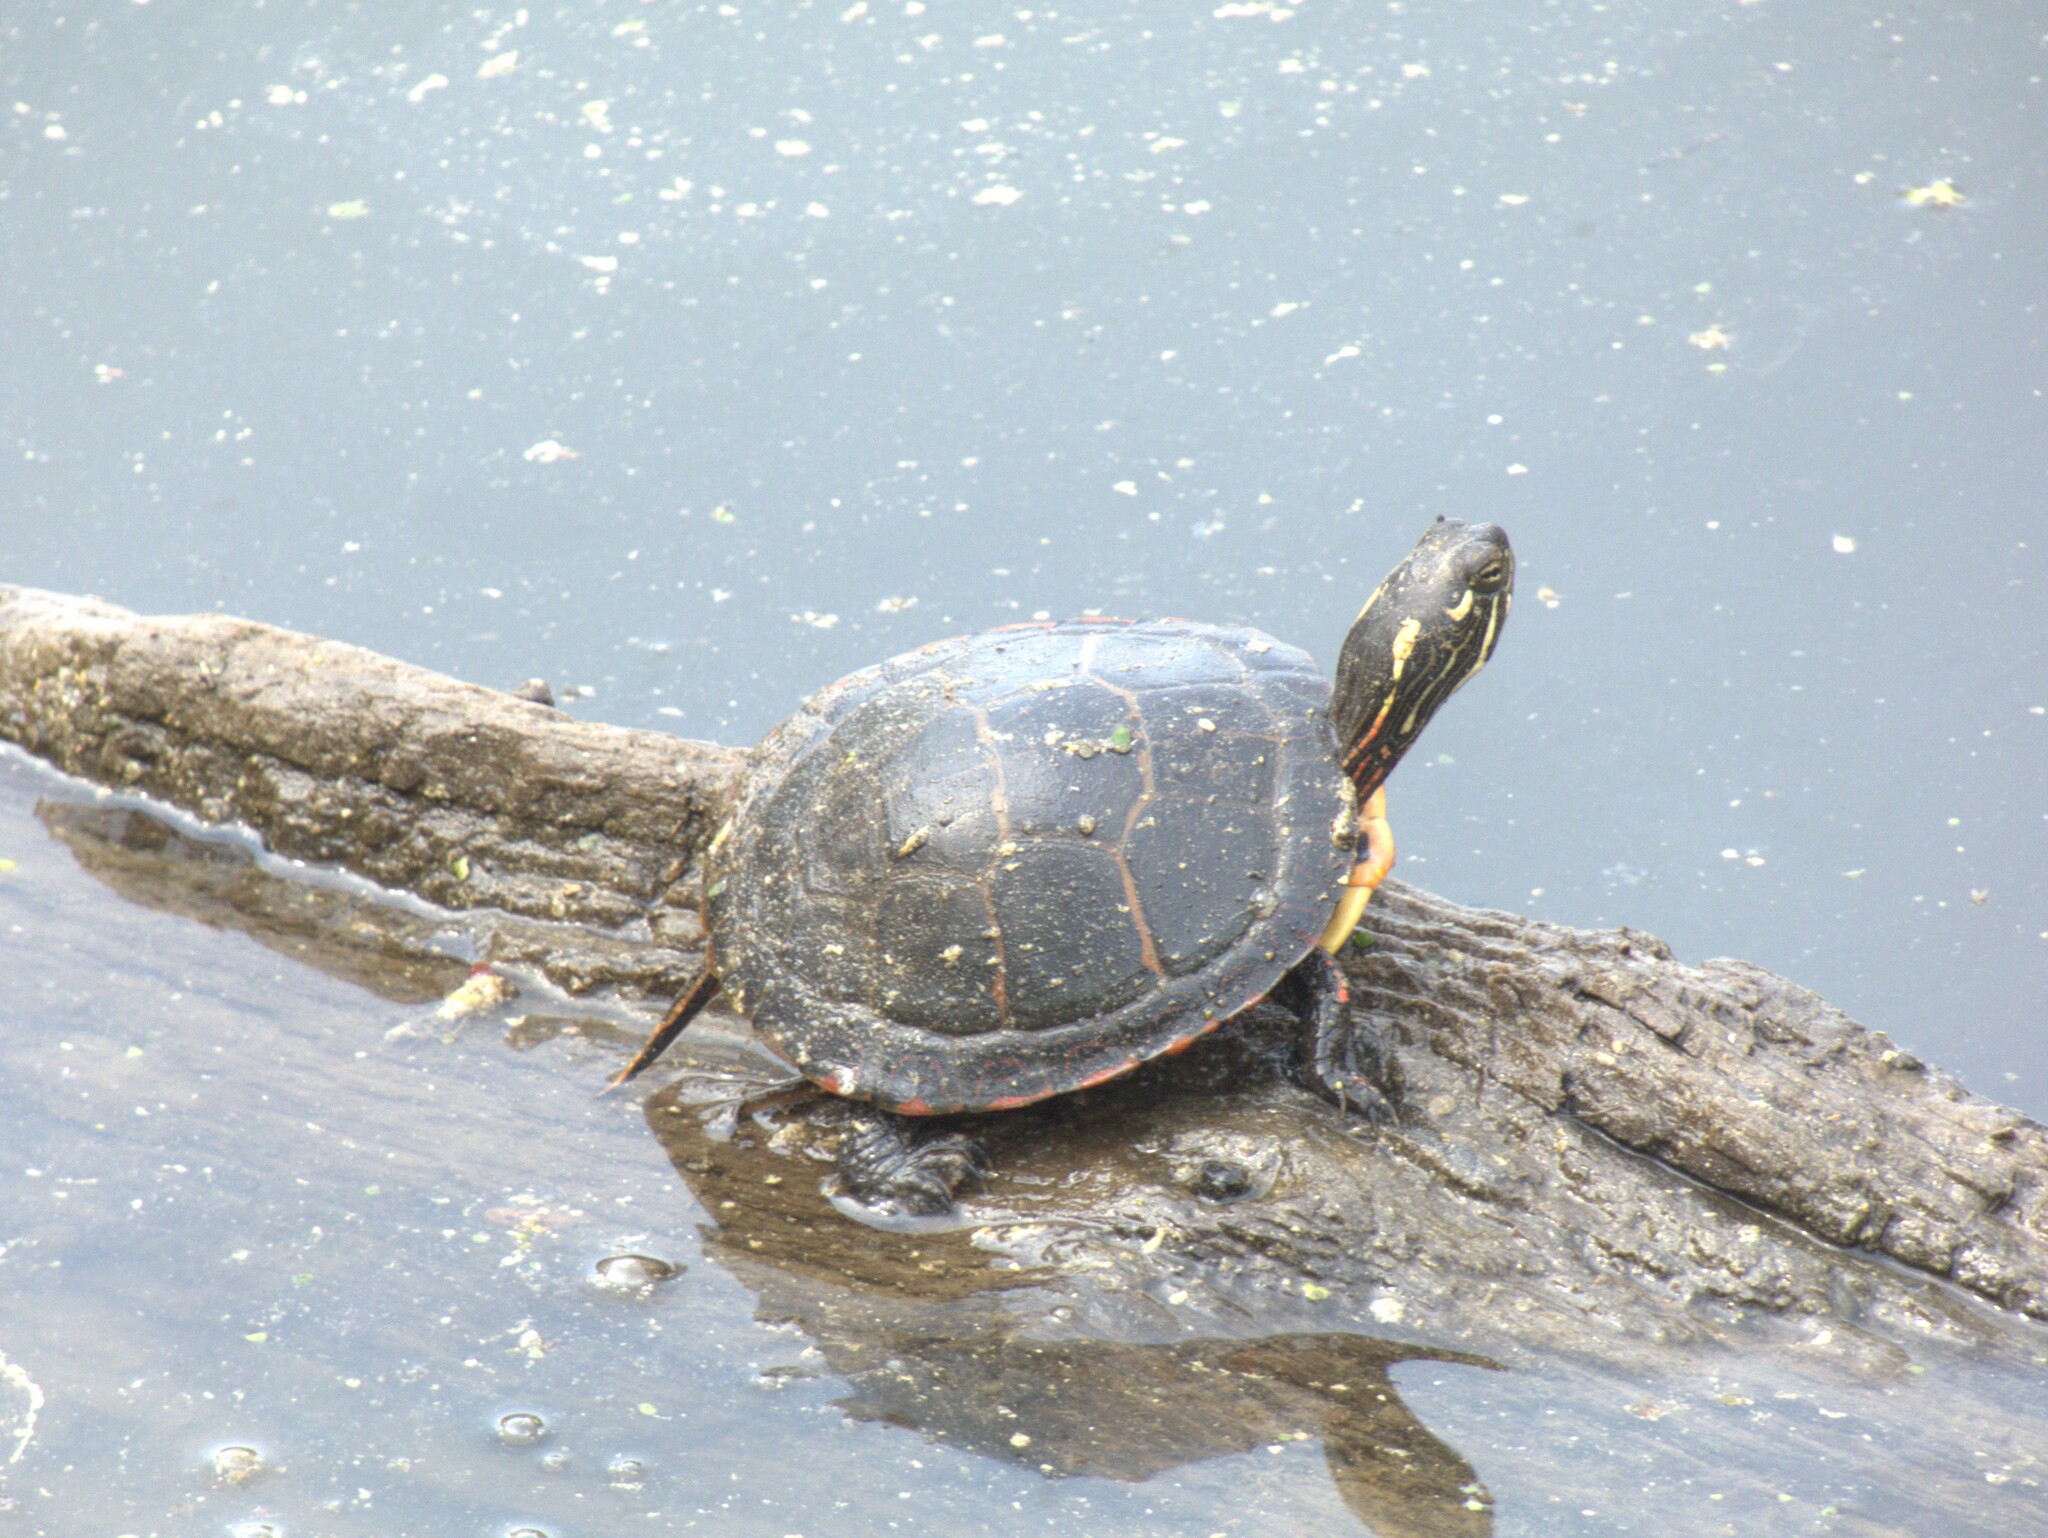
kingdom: Animalia
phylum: Chordata
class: Testudines
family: Emydidae
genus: Chrysemys
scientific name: Chrysemys picta
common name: Painted turtle
